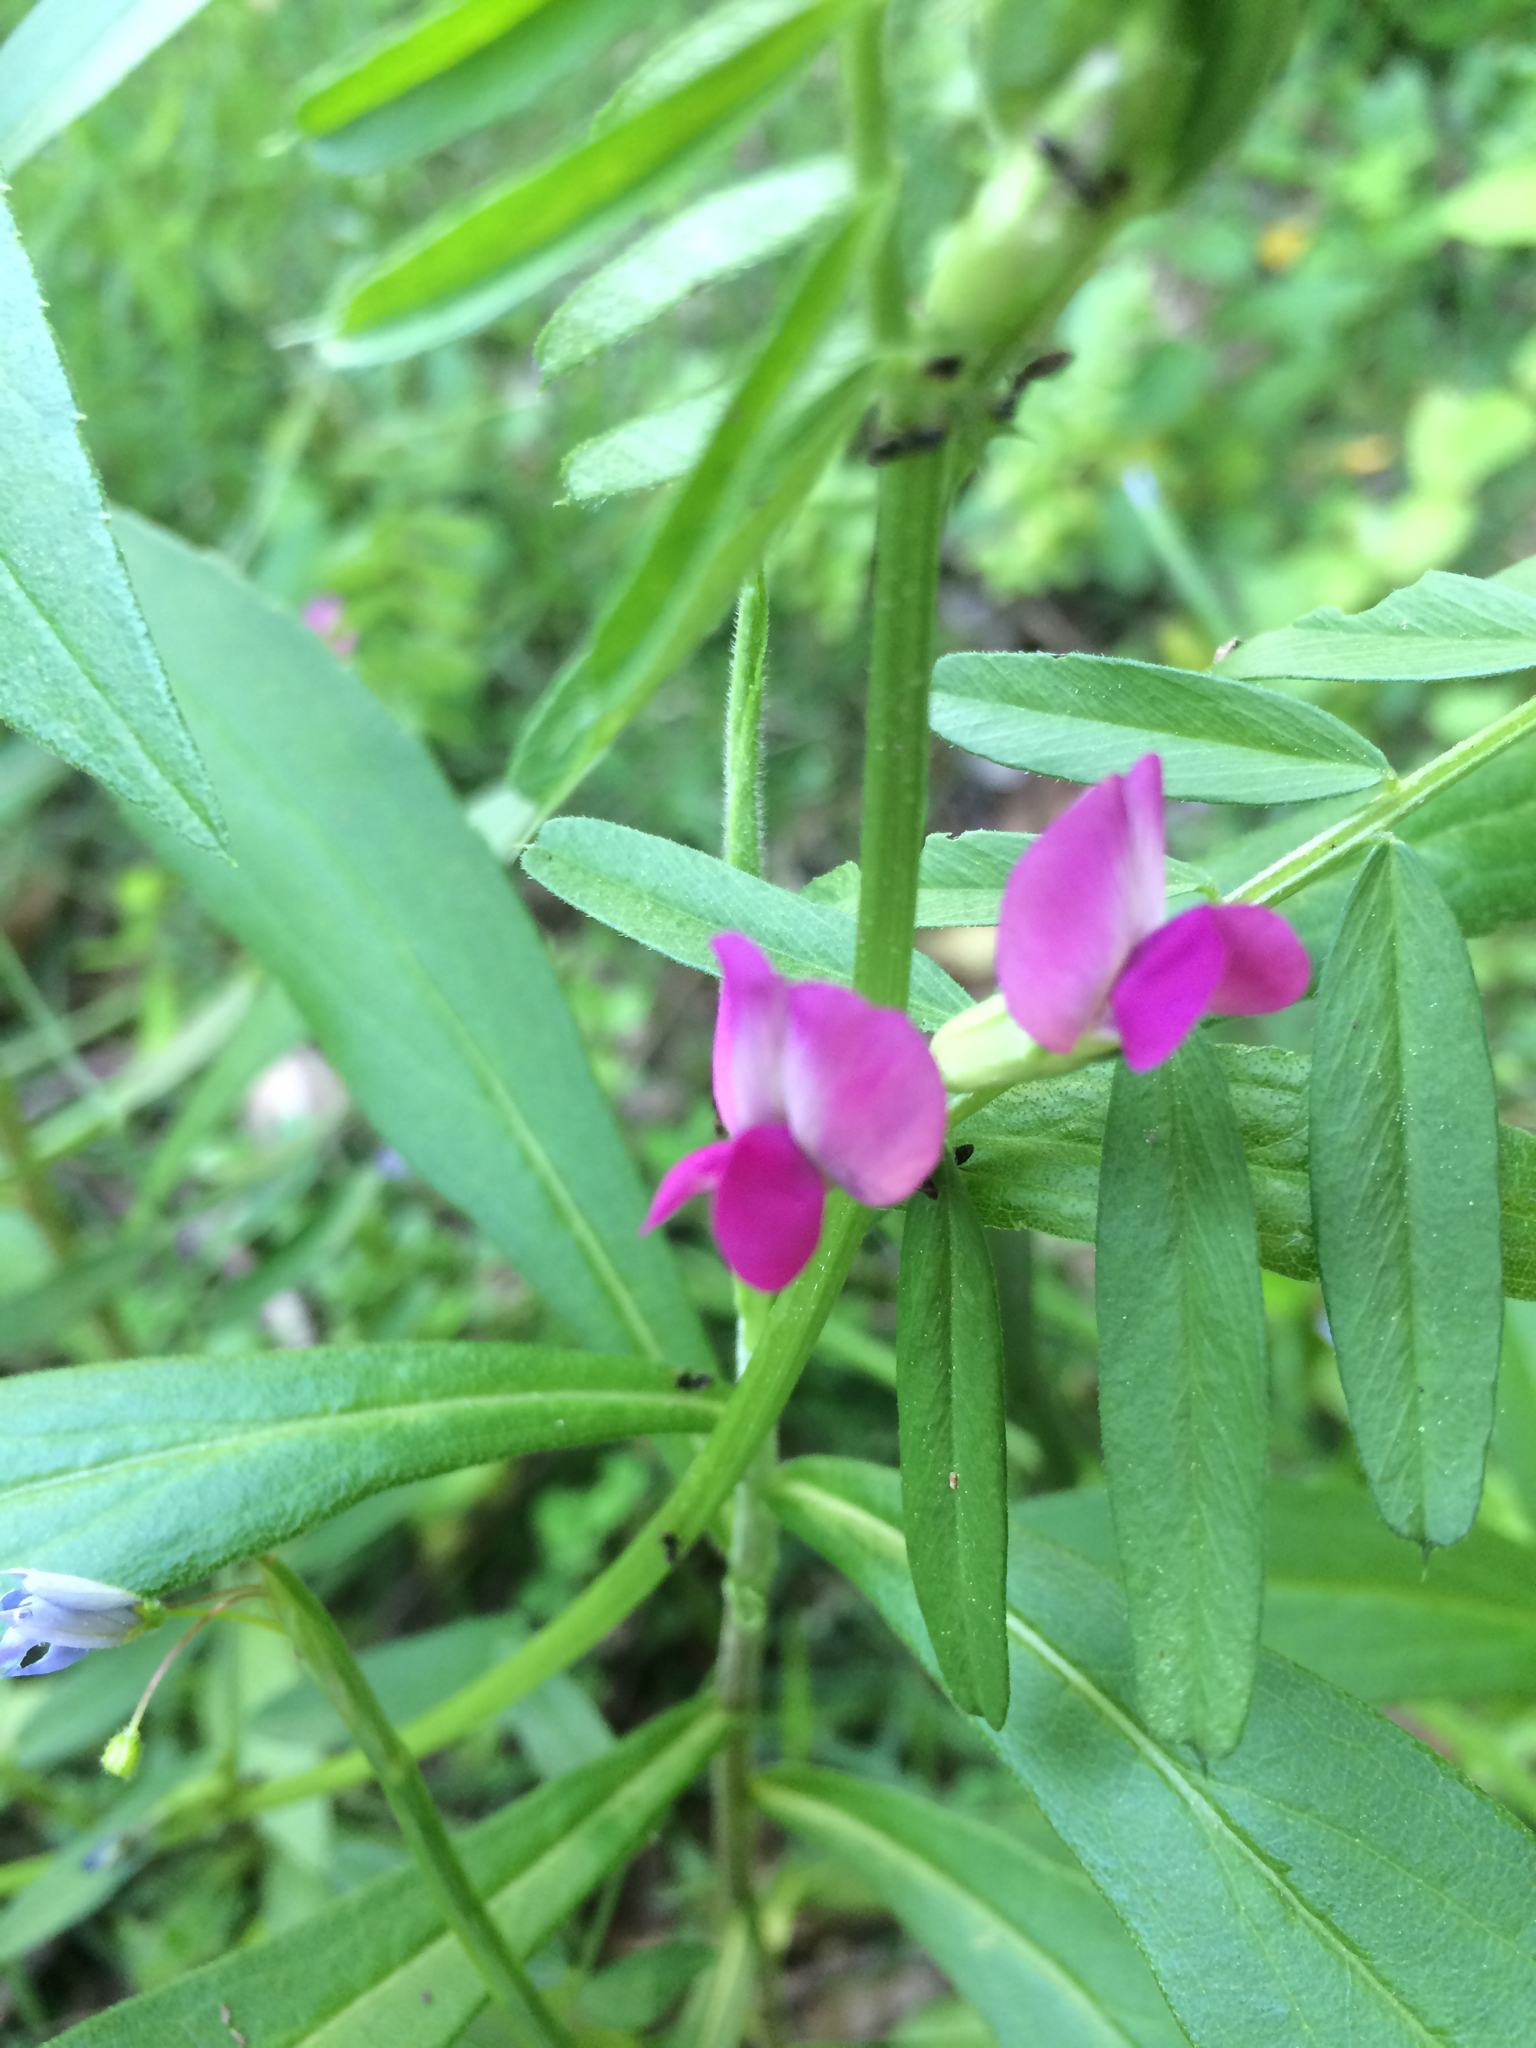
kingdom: Plantae
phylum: Tracheophyta
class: Magnoliopsida
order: Fabales
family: Fabaceae
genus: Vicia
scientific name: Vicia sativa
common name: Garden vetch
